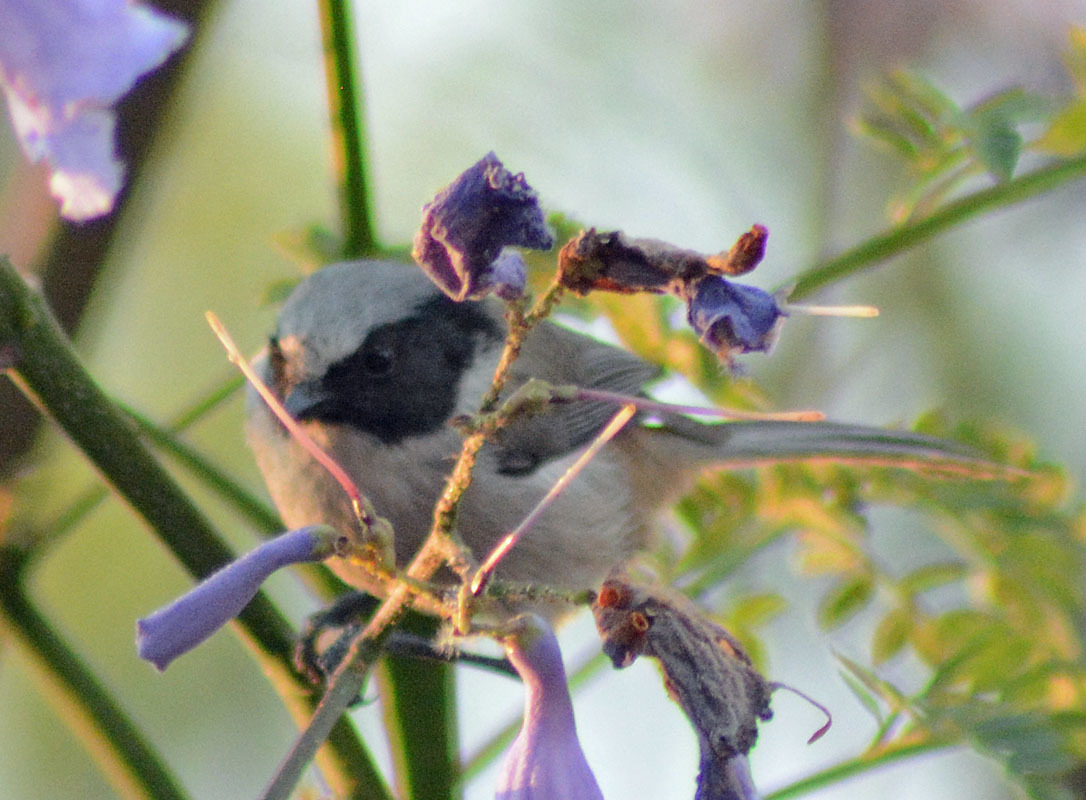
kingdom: Animalia
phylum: Chordata
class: Aves
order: Passeriformes
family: Aegithalidae
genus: Psaltriparus
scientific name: Psaltriparus minimus
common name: American bushtit
